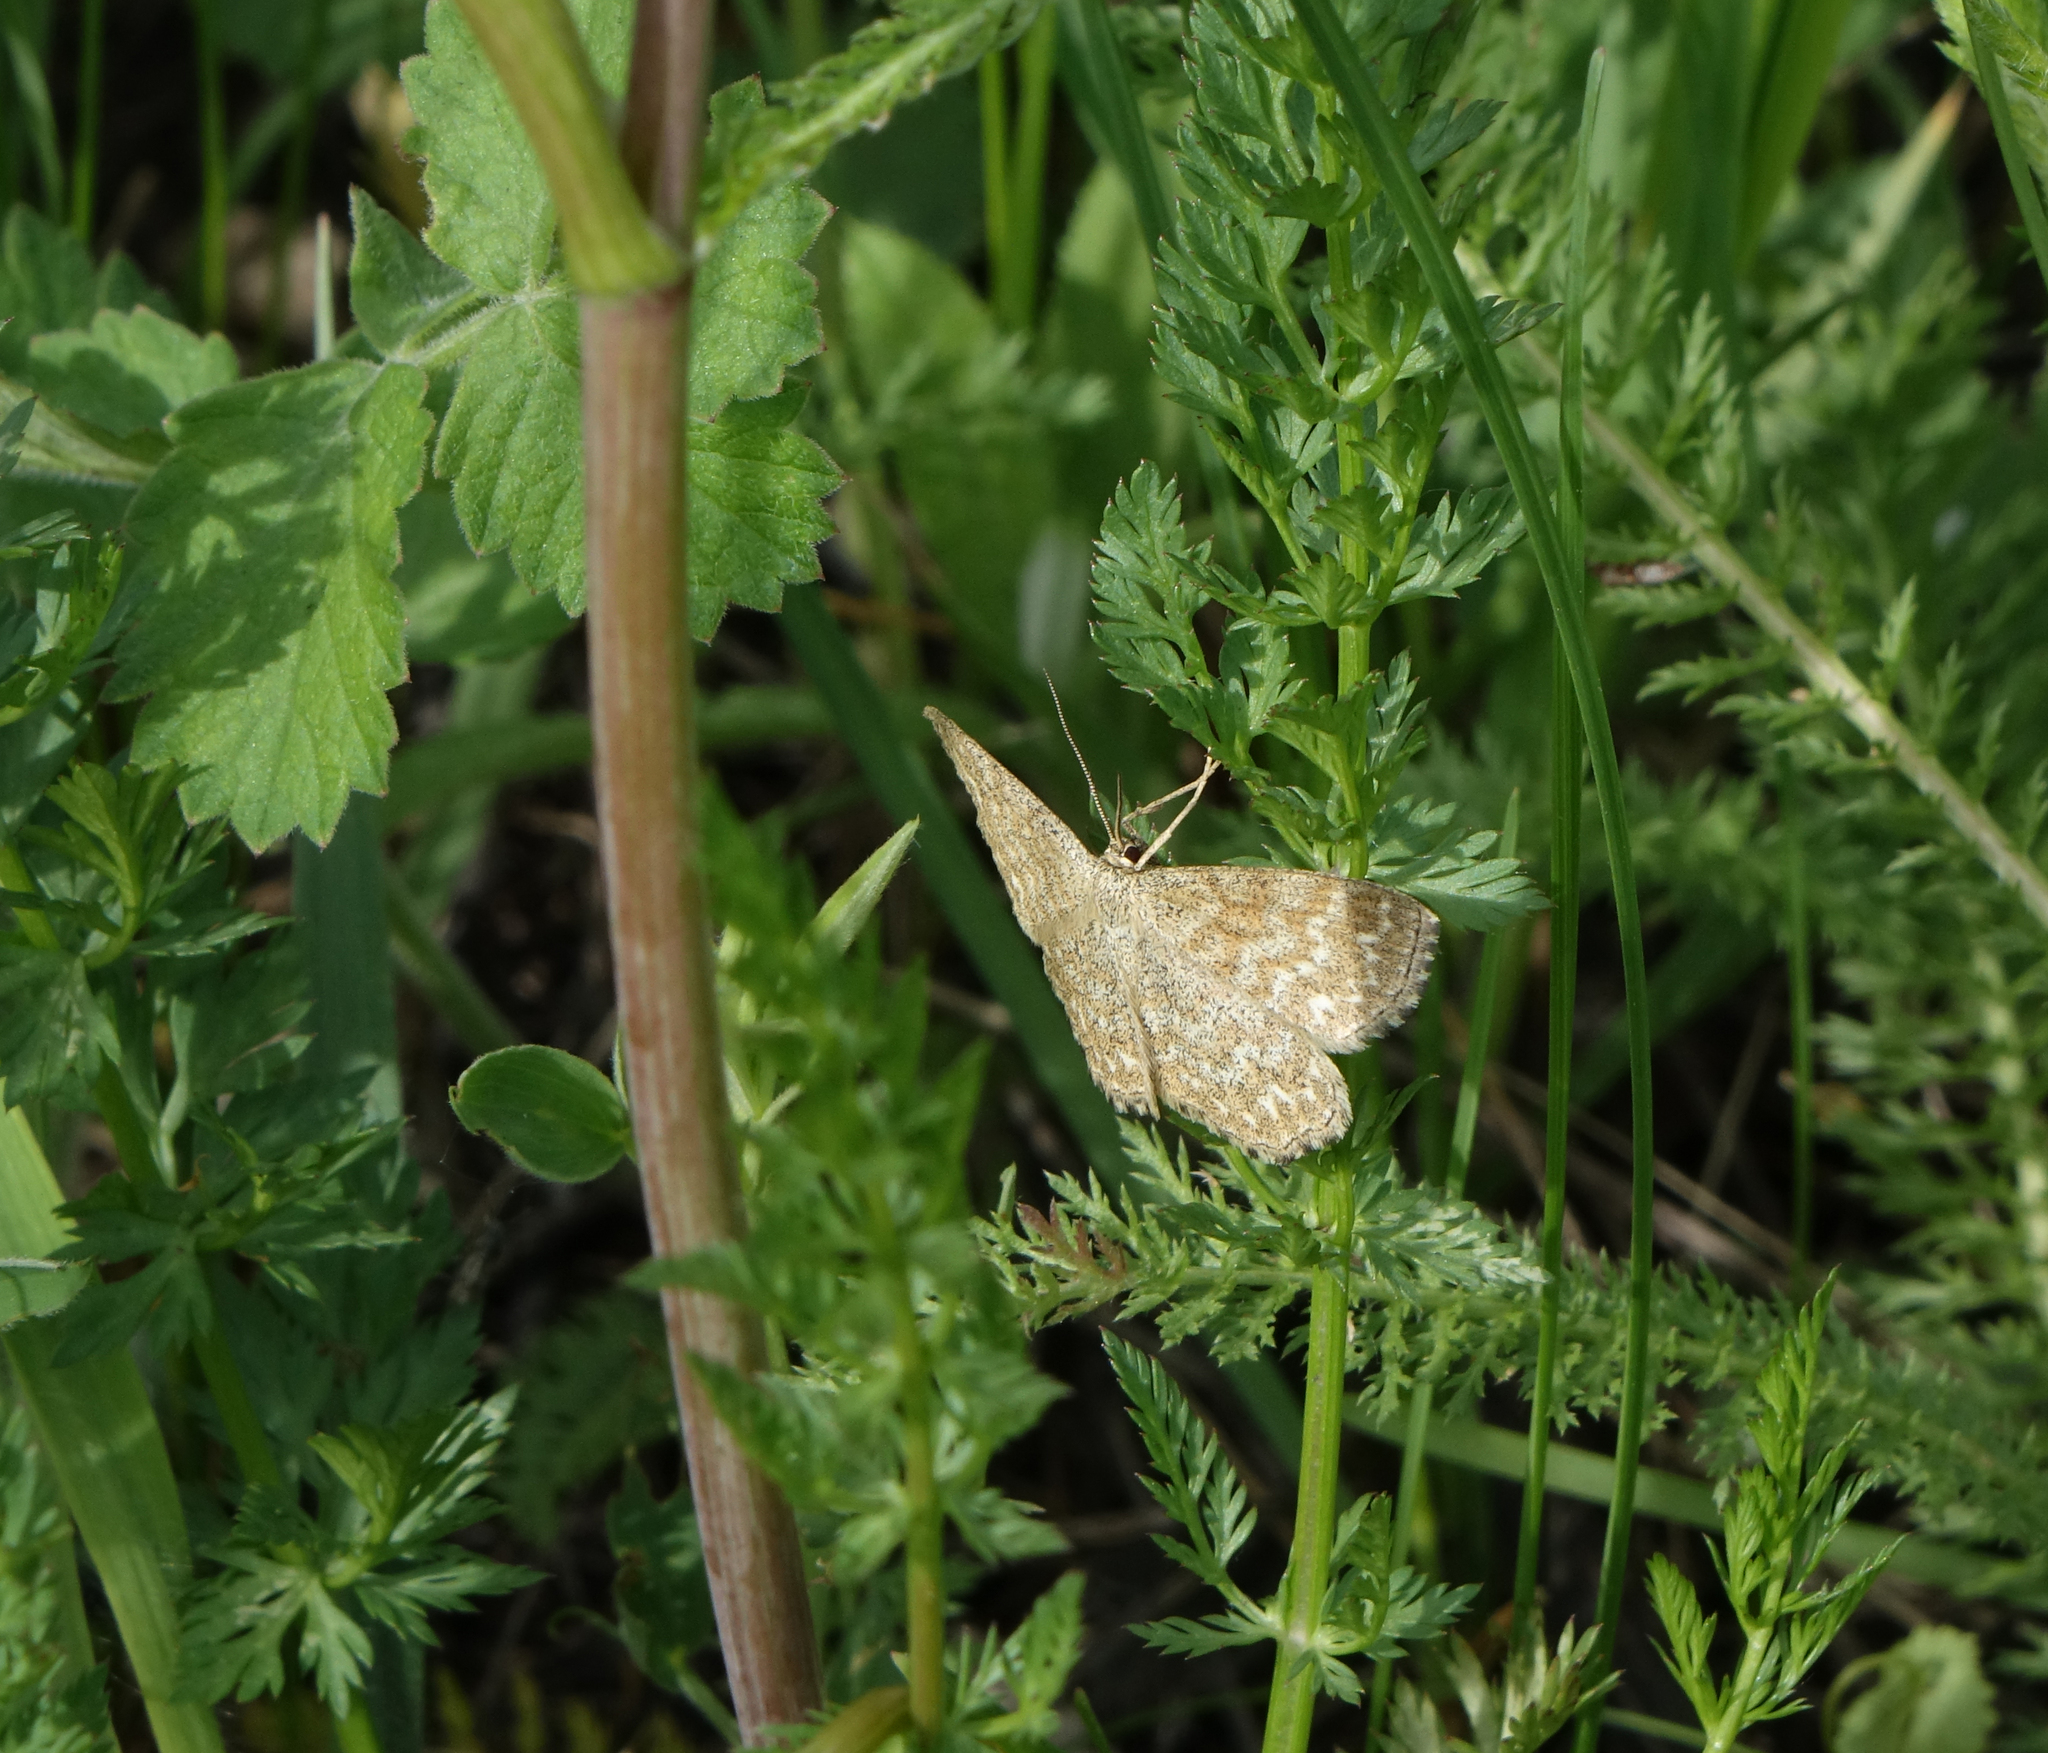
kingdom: Animalia
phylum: Arthropoda
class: Insecta
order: Lepidoptera
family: Geometridae
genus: Scopula
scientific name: Scopula immorata
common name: Lewes wave
